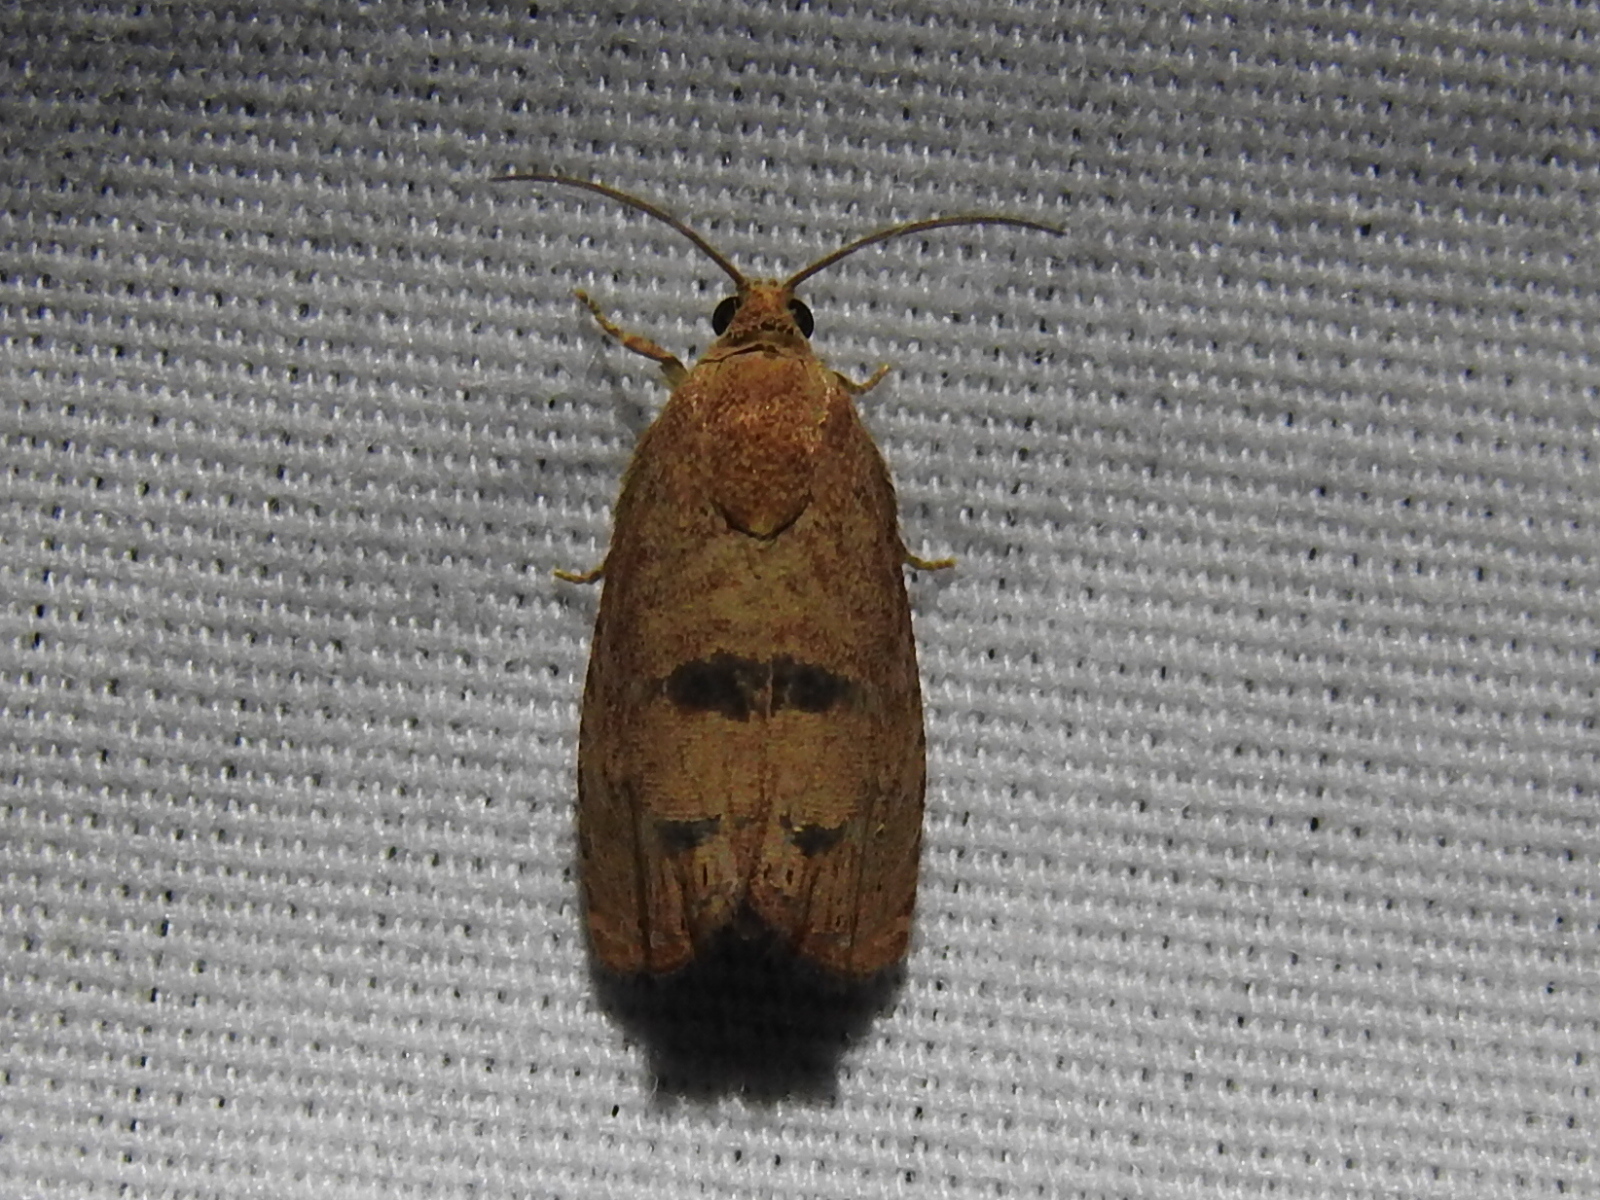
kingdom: Animalia
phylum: Arthropoda
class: Insecta
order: Lepidoptera
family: Tortricidae
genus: Cydia
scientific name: Cydia latiferreana
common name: Filbertworm moth
